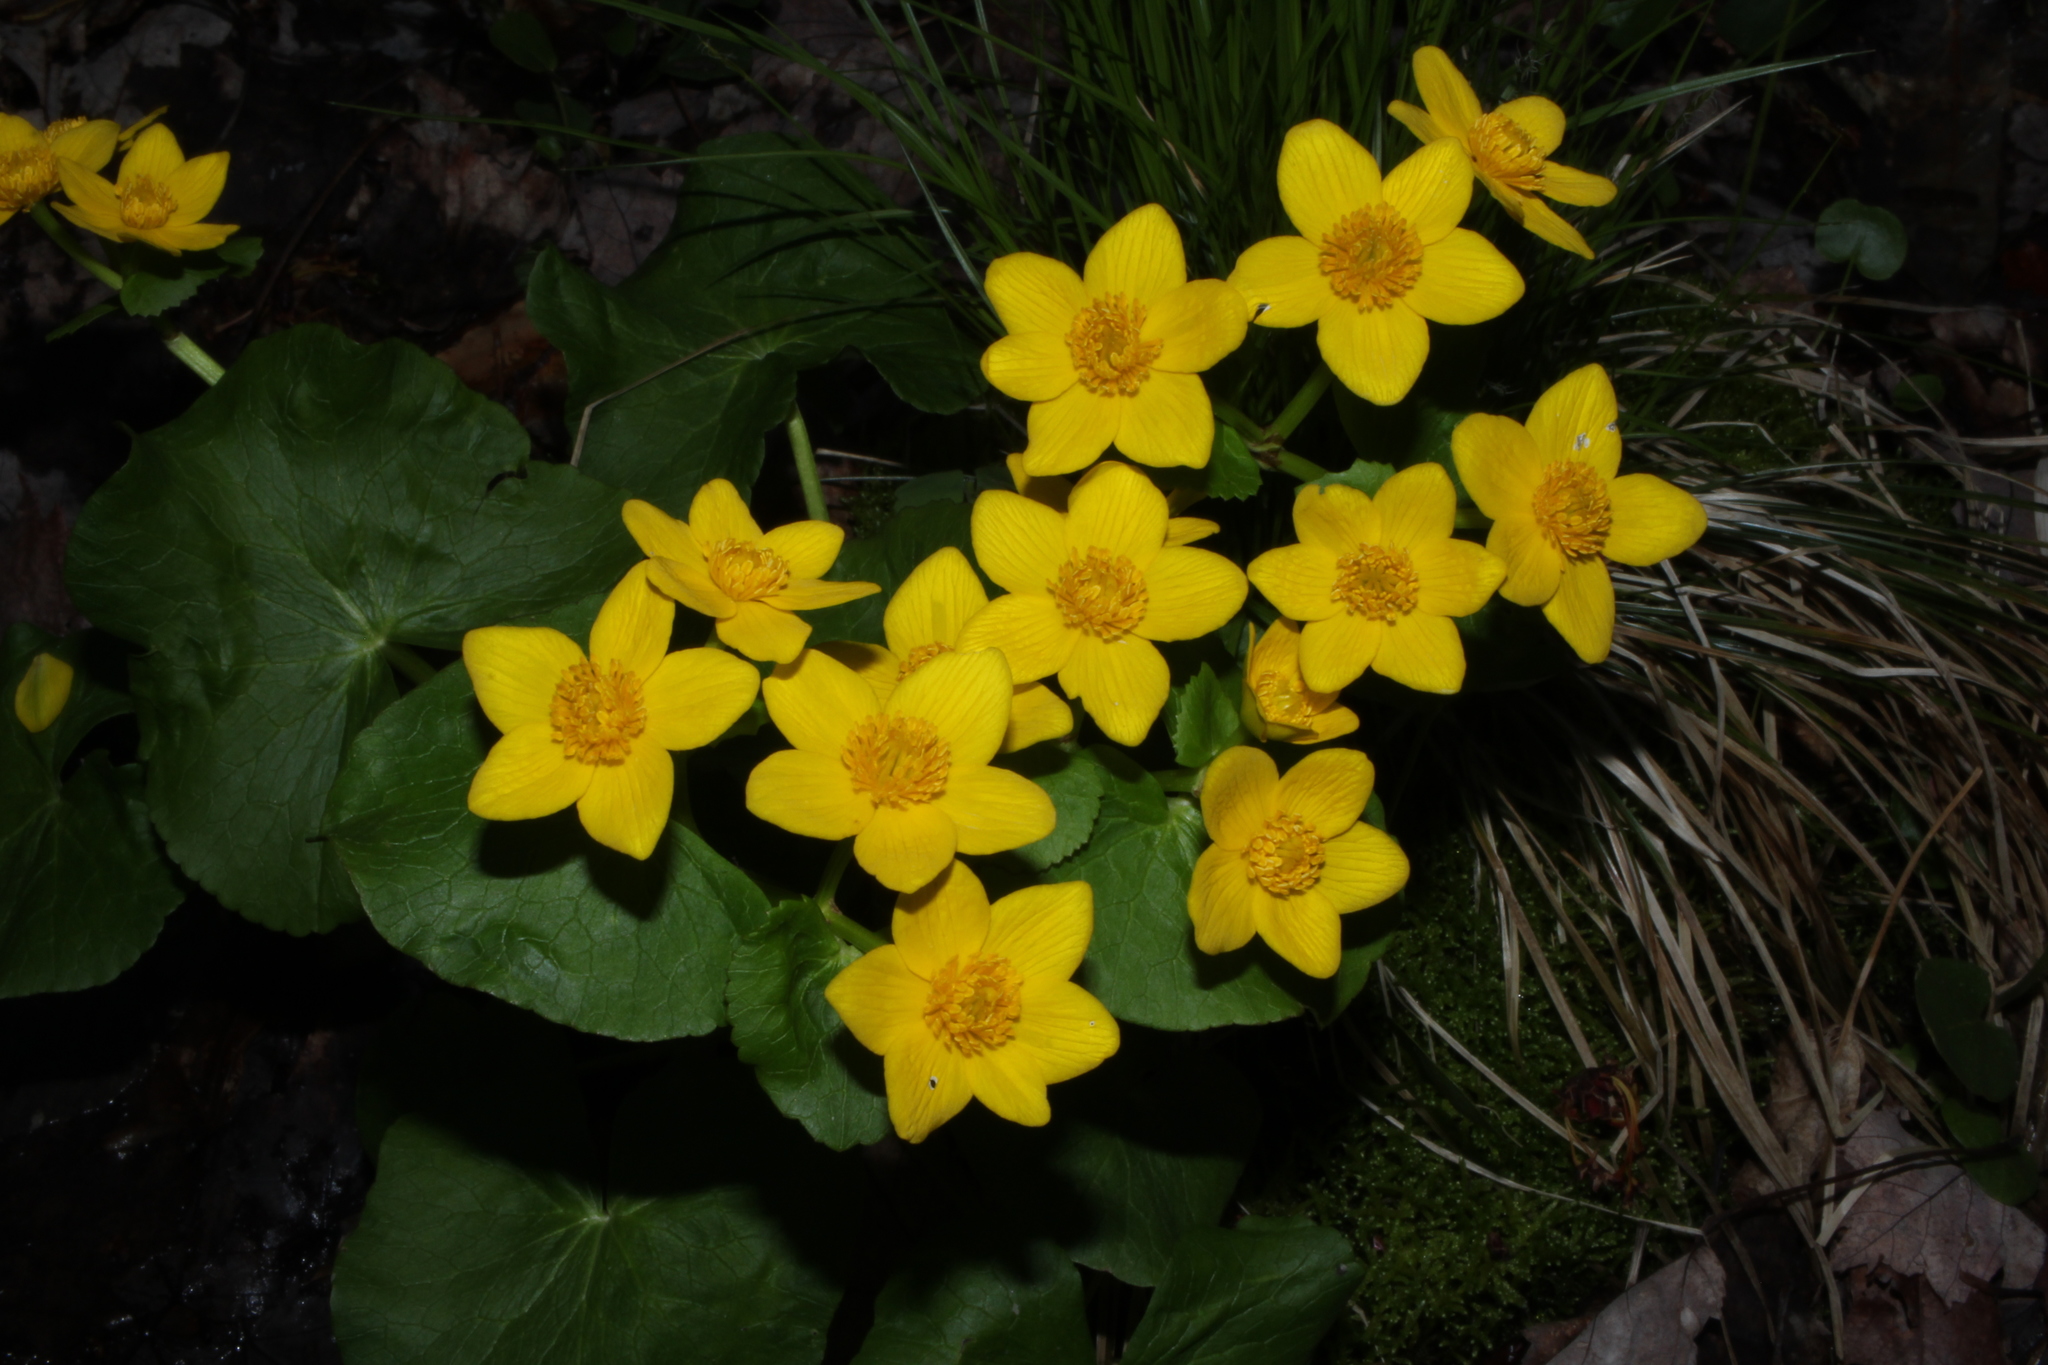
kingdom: Plantae
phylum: Tracheophyta
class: Magnoliopsida
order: Ranunculales
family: Ranunculaceae
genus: Caltha
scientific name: Caltha palustris
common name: Marsh marigold
